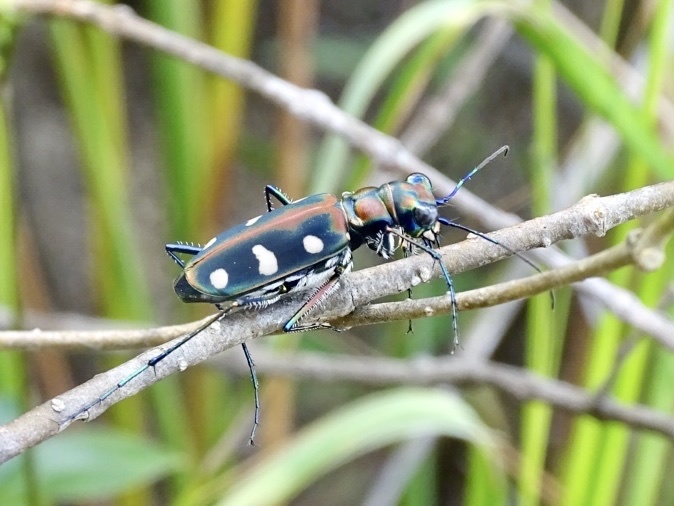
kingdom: Animalia
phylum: Arthropoda
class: Insecta
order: Coleoptera
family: Carabidae
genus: Cicindela
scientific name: Cicindela juxtata
